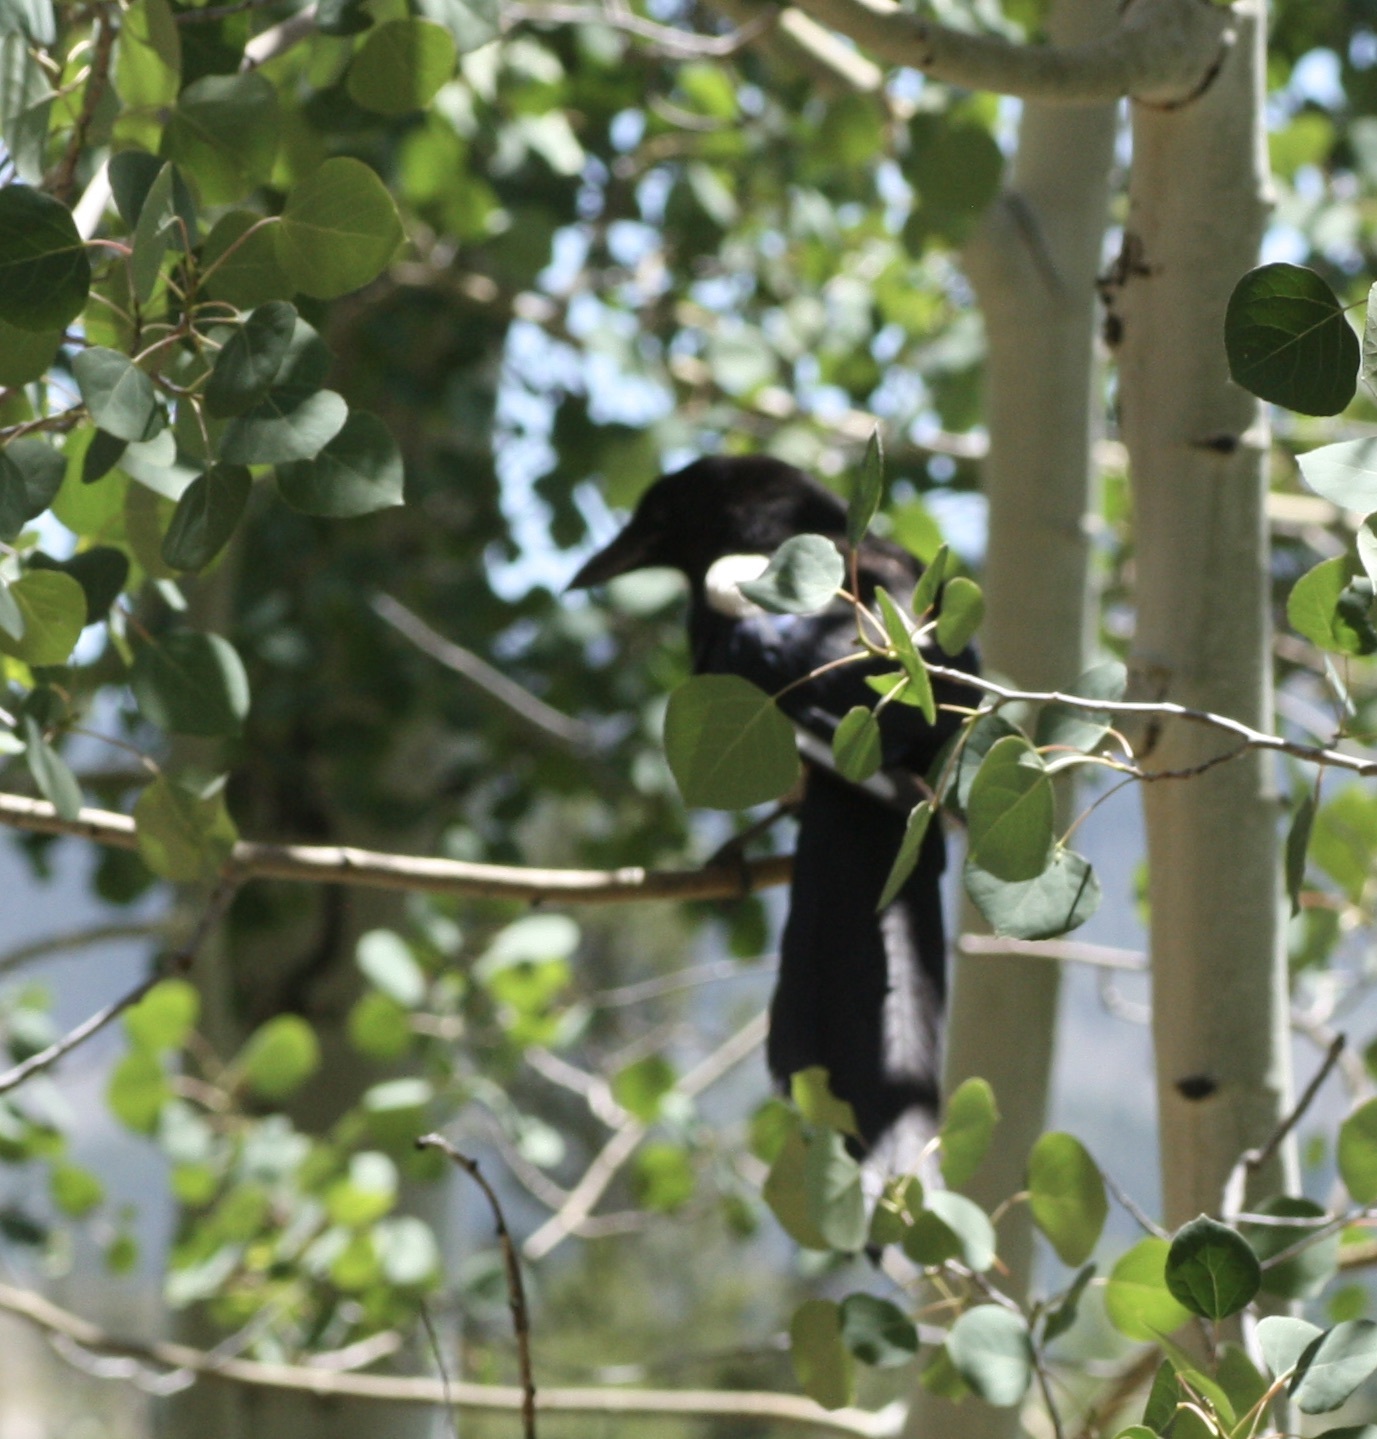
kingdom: Animalia
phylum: Chordata
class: Aves
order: Passeriformes
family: Corvidae
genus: Pica
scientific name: Pica hudsonia
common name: Black-billed magpie
